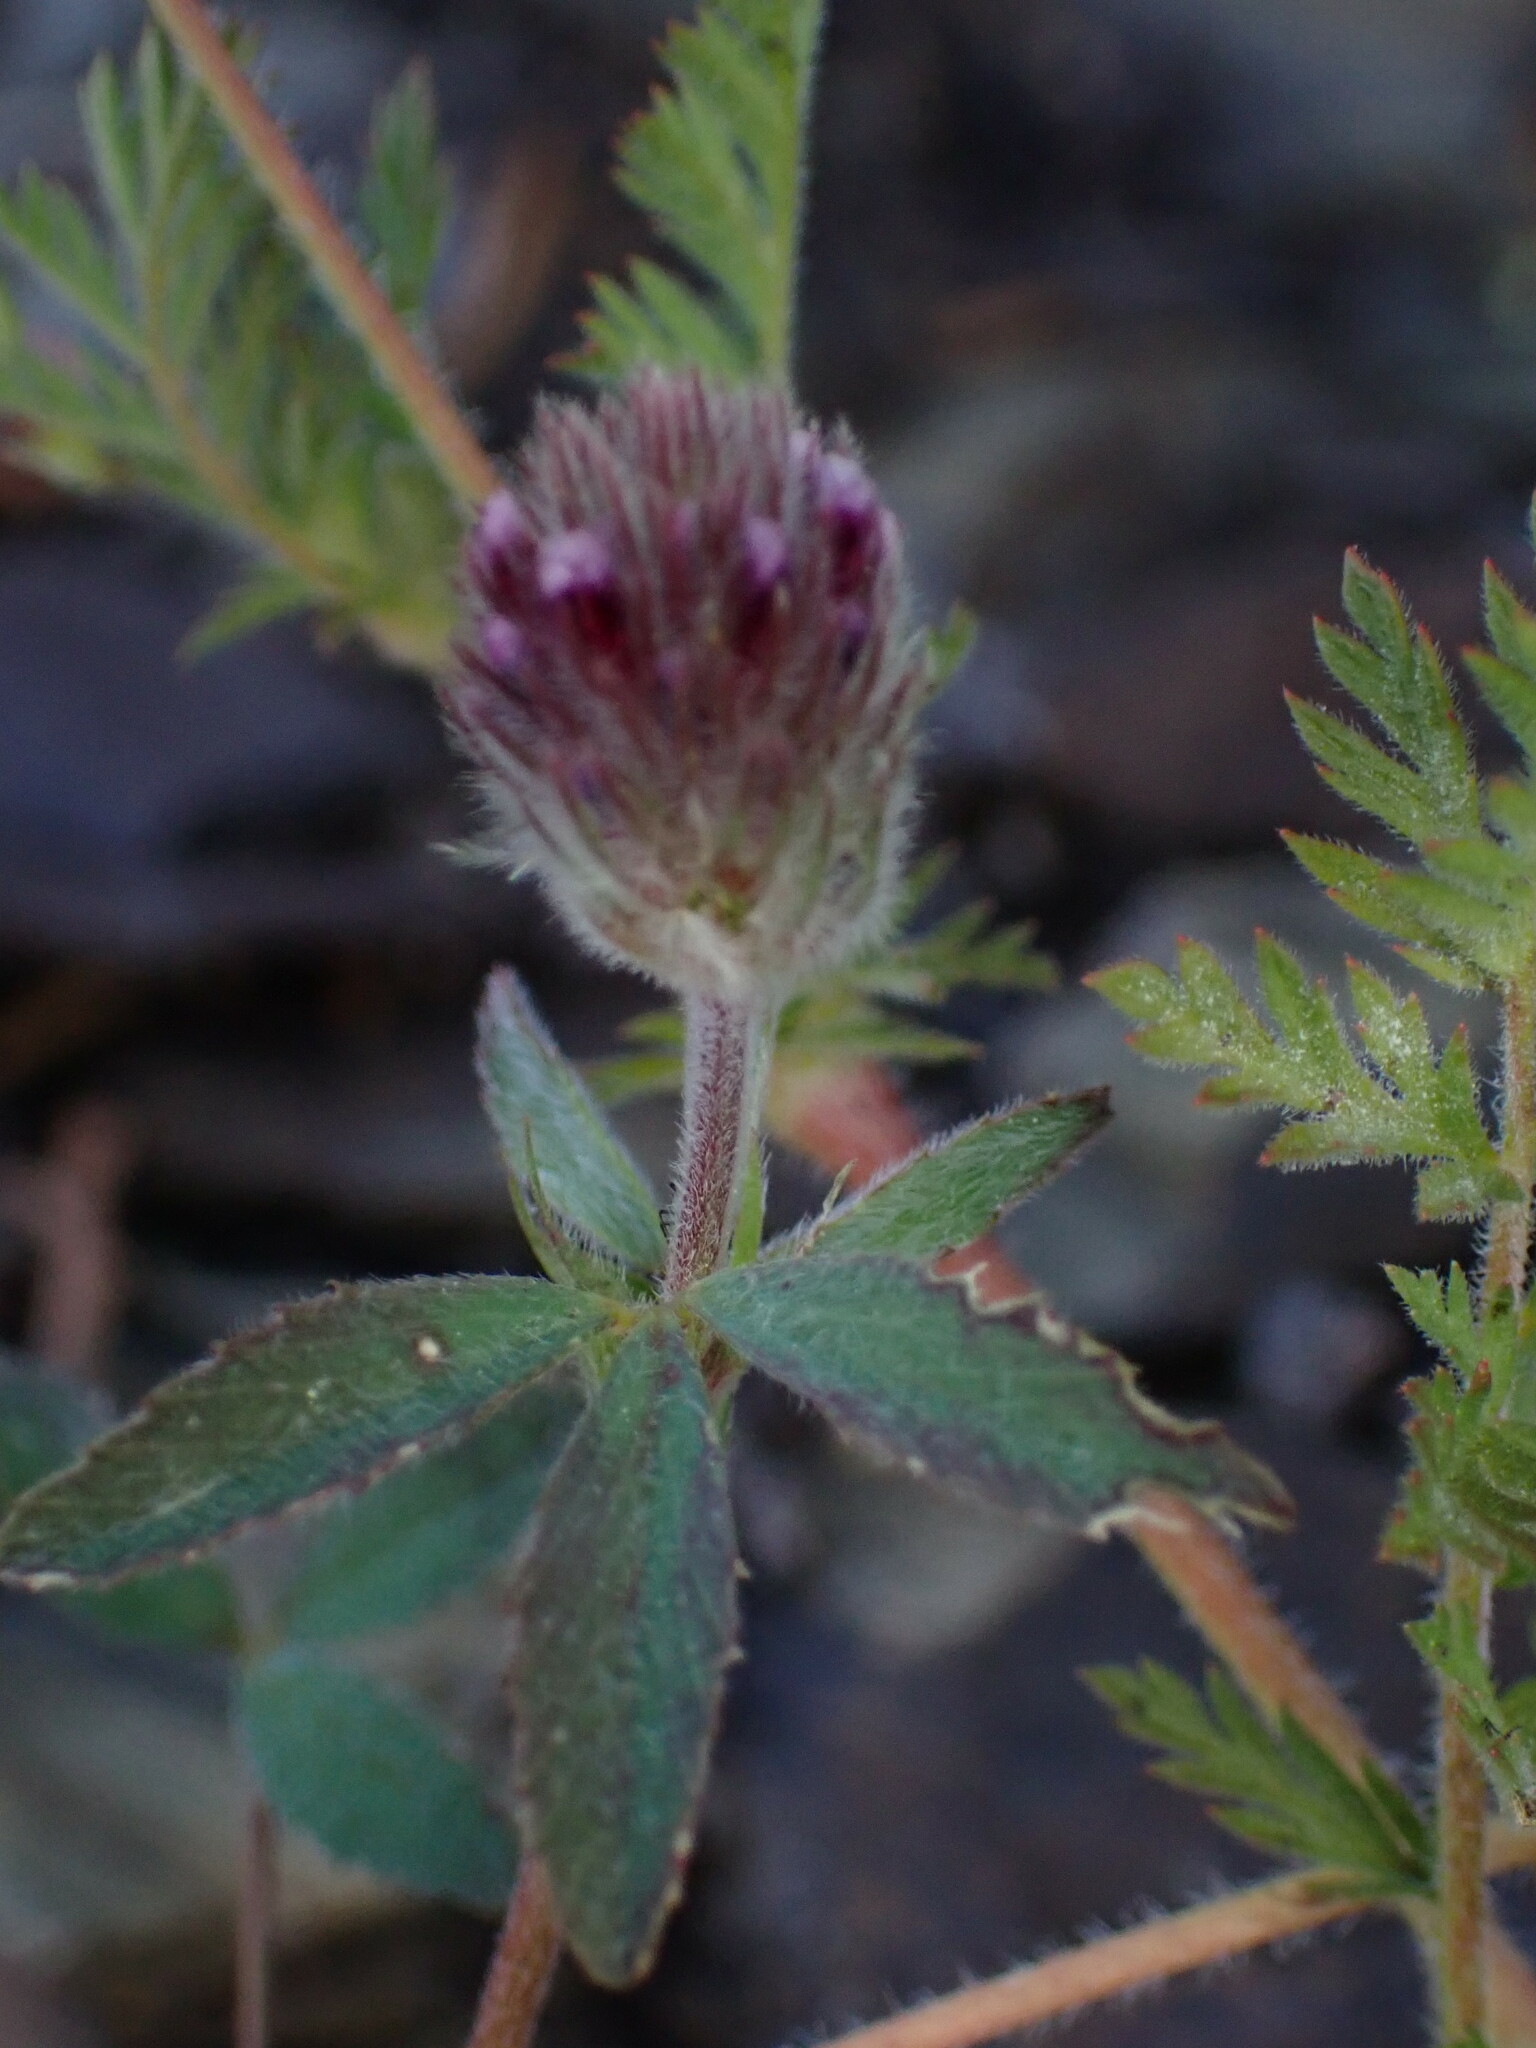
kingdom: Plantae
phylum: Tracheophyta
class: Magnoliopsida
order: Fabales
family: Fabaceae
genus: Trifolium
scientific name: Trifolium albopurpureum
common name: Rancheria clover
